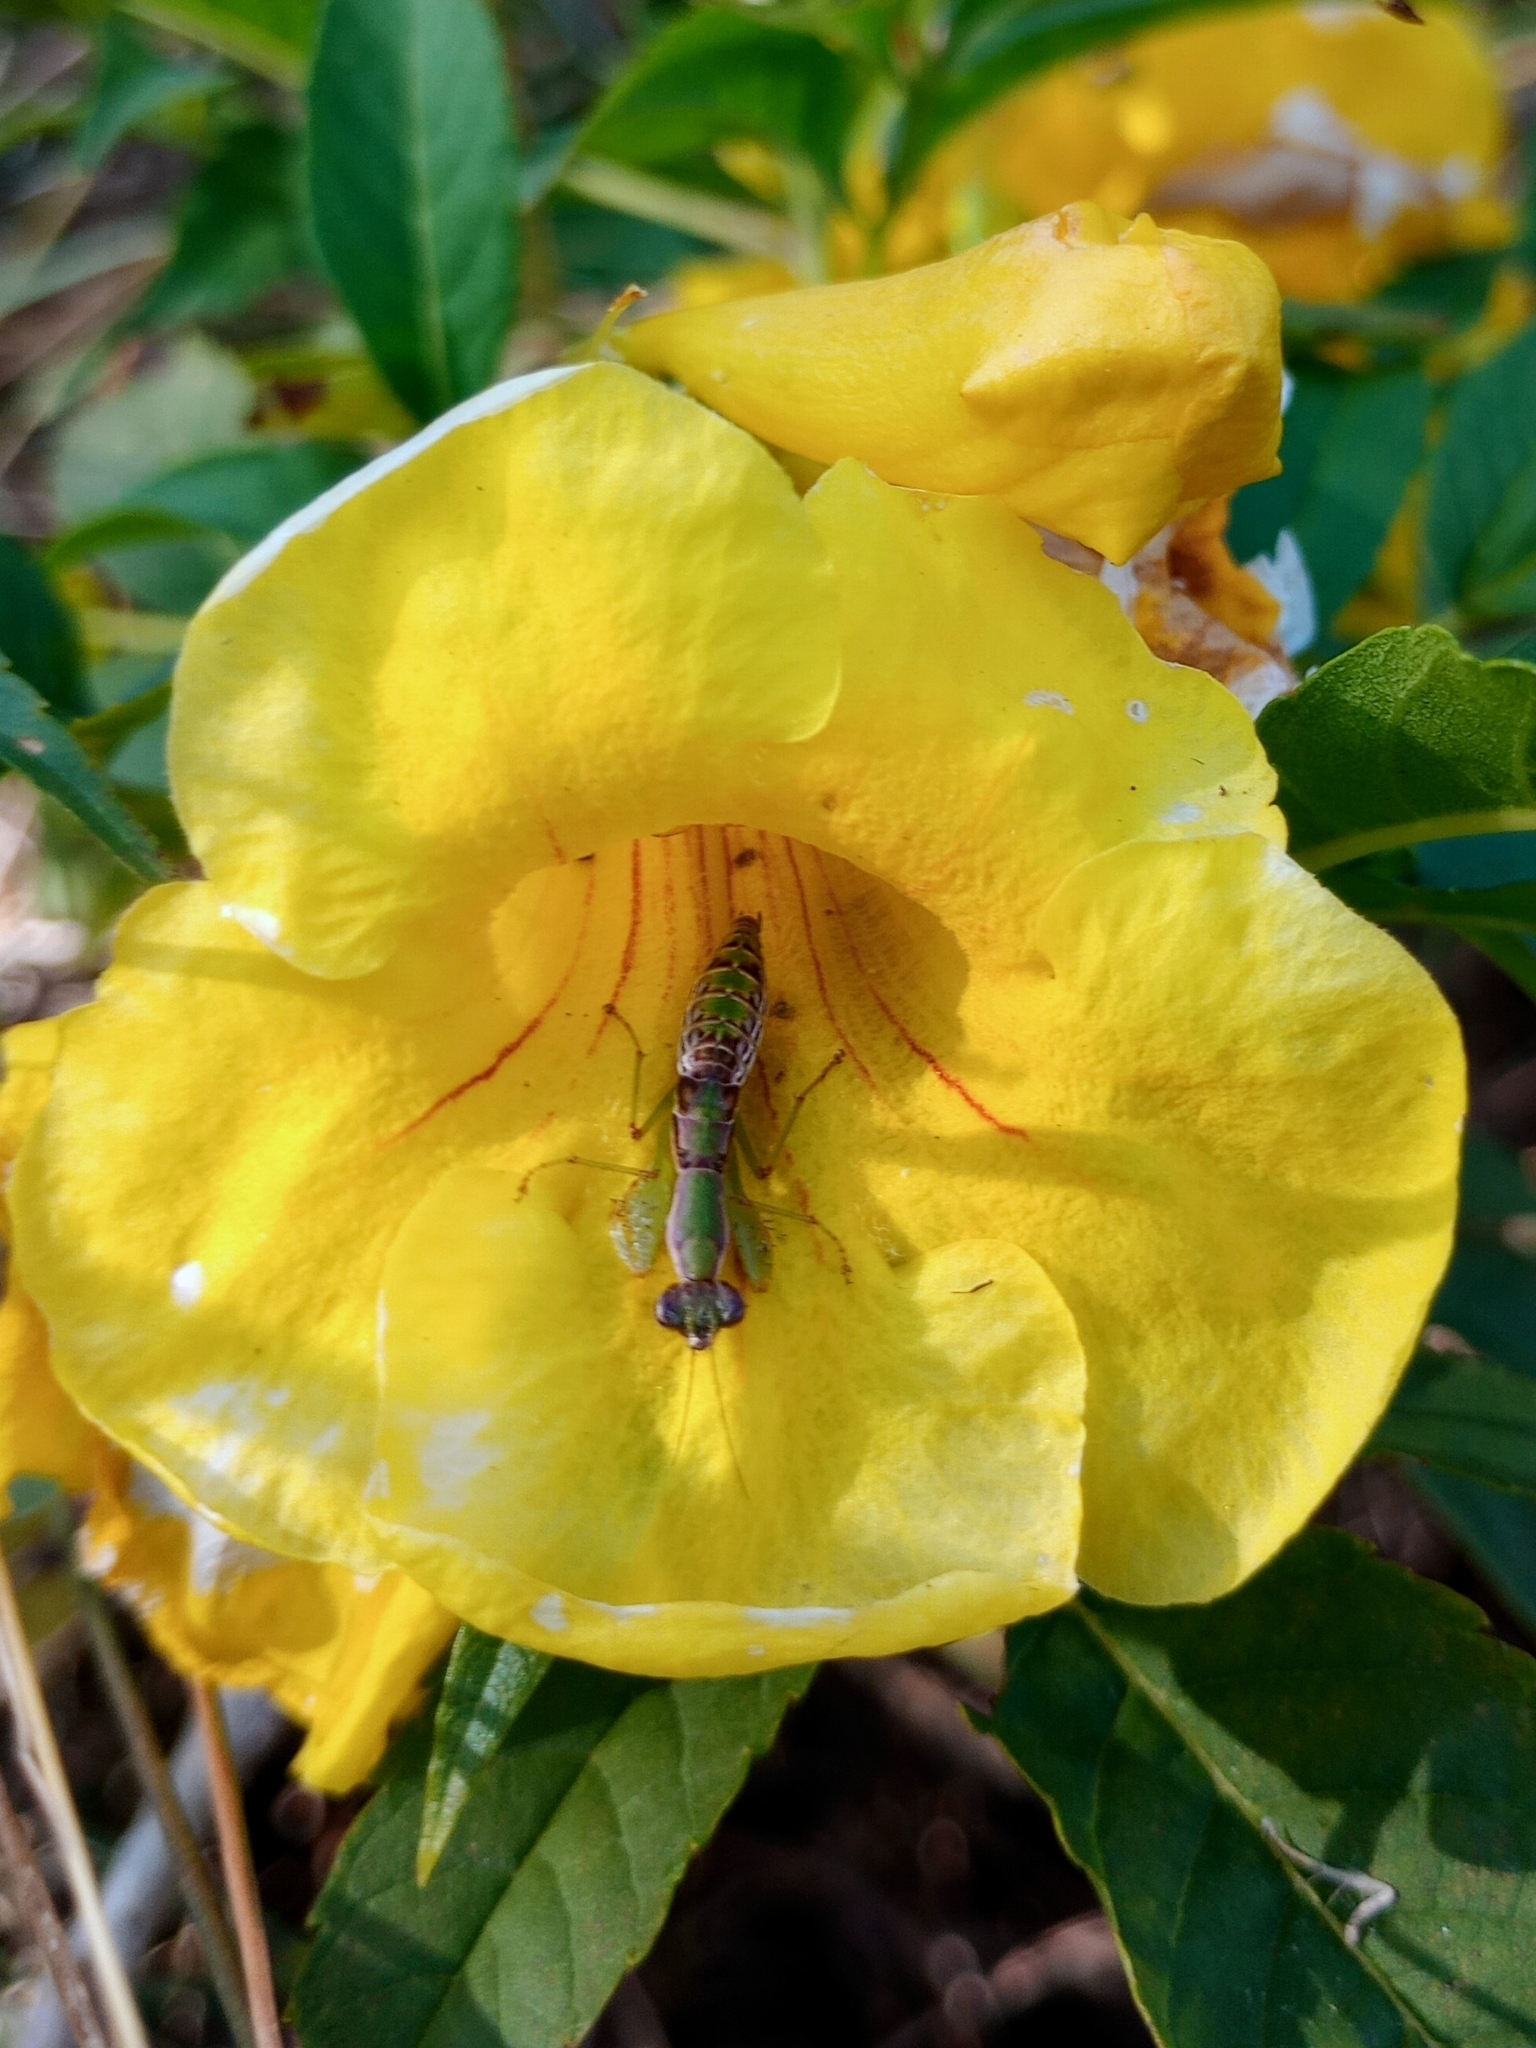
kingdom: Animalia
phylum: Arthropoda
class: Insecta
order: Mantodea
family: Hymenopodidae
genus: Odontomantis
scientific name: Odontomantis planiceps
